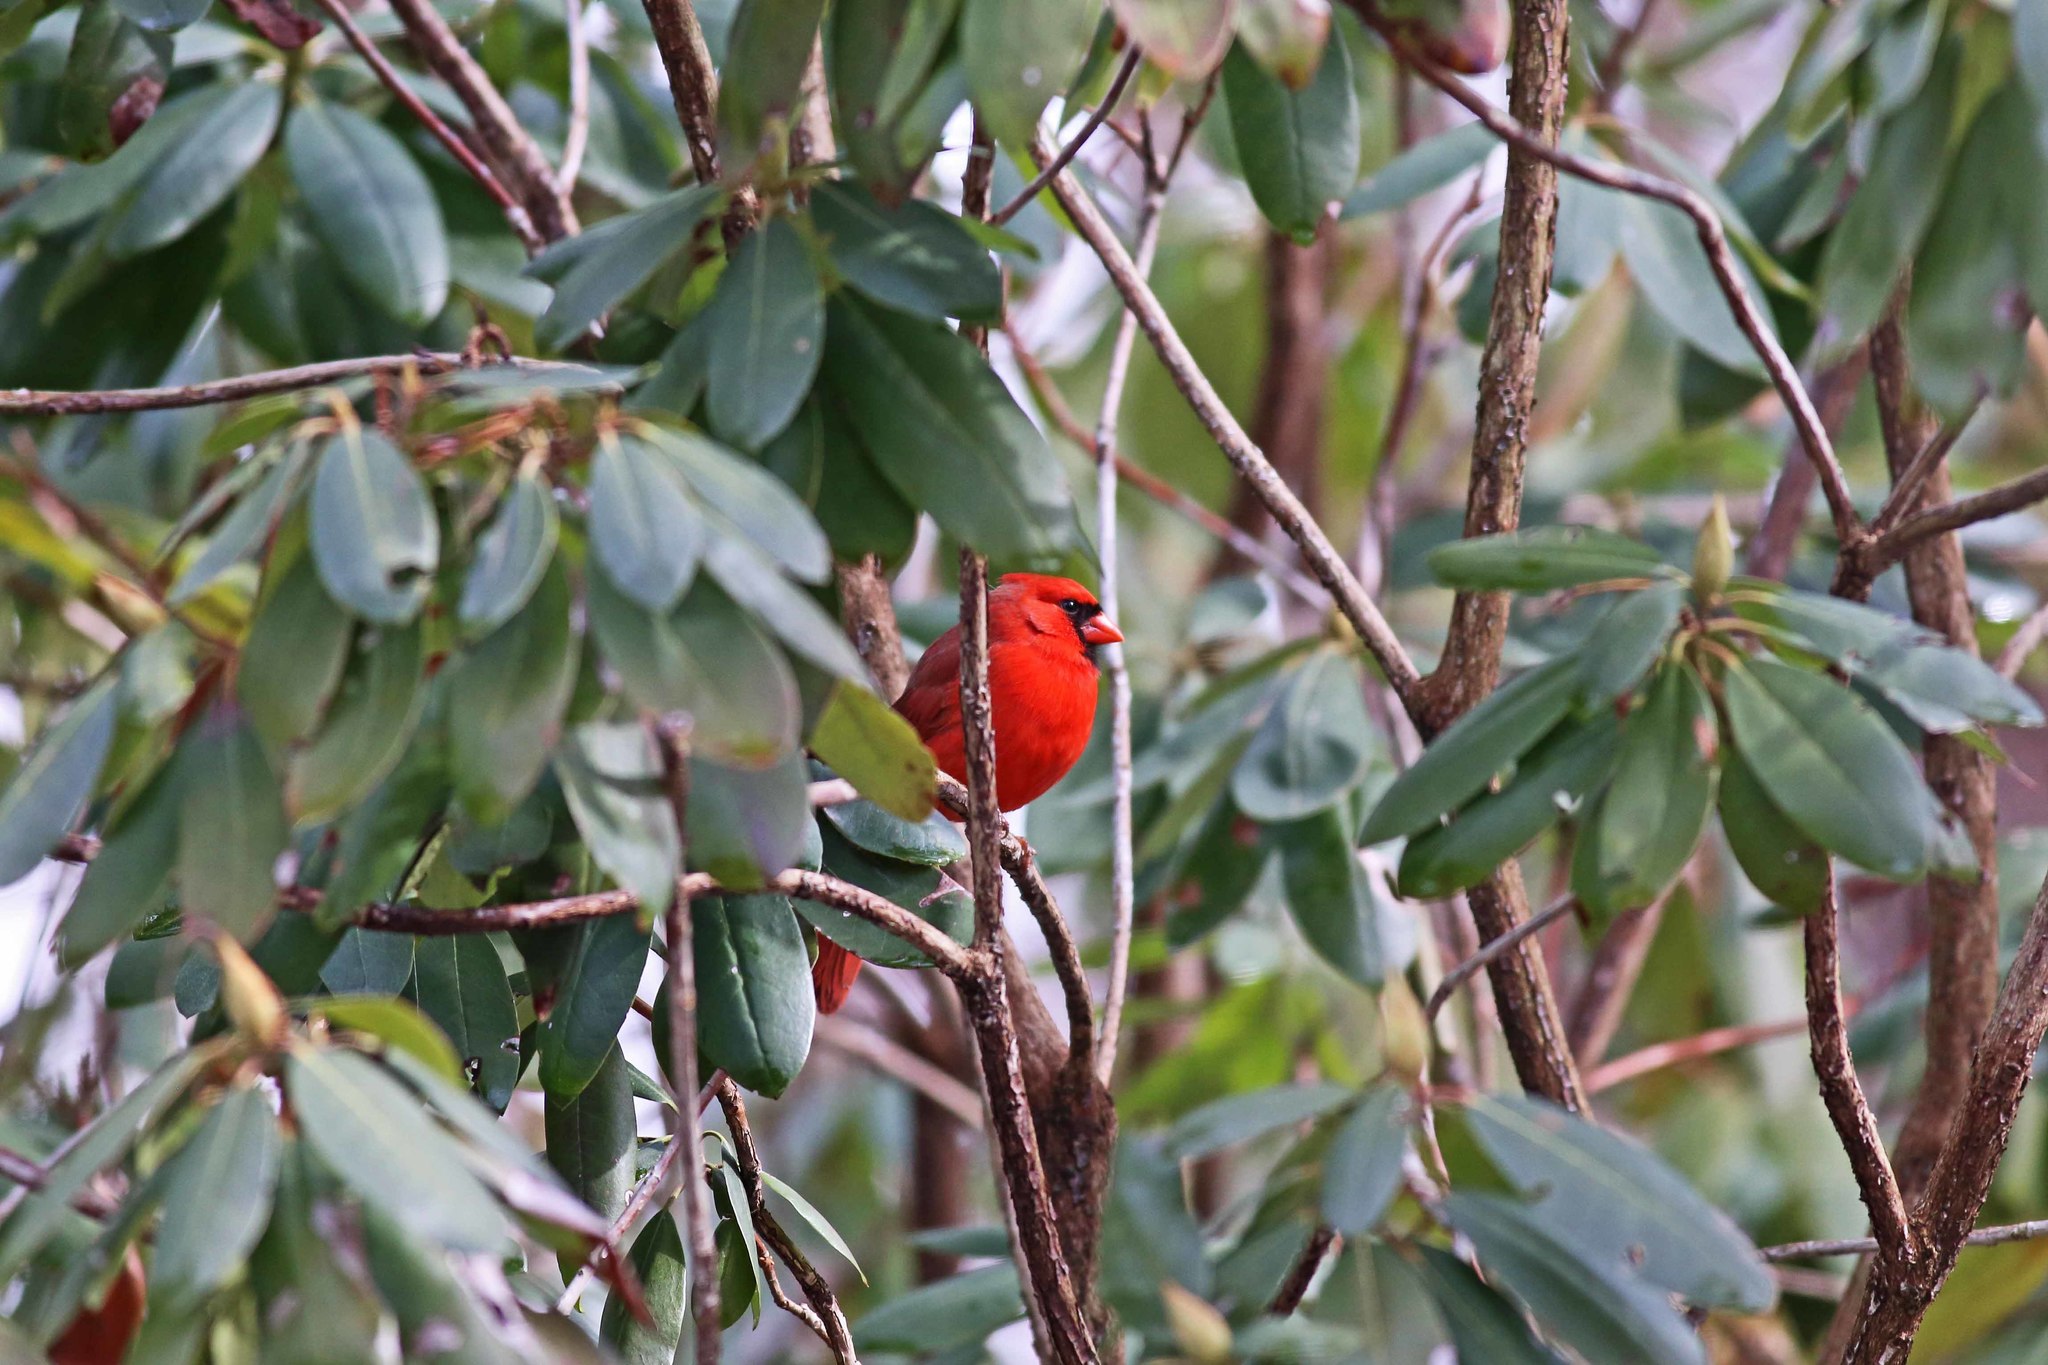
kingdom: Animalia
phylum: Chordata
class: Aves
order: Passeriformes
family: Cardinalidae
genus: Cardinalis
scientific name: Cardinalis cardinalis
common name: Northern cardinal
